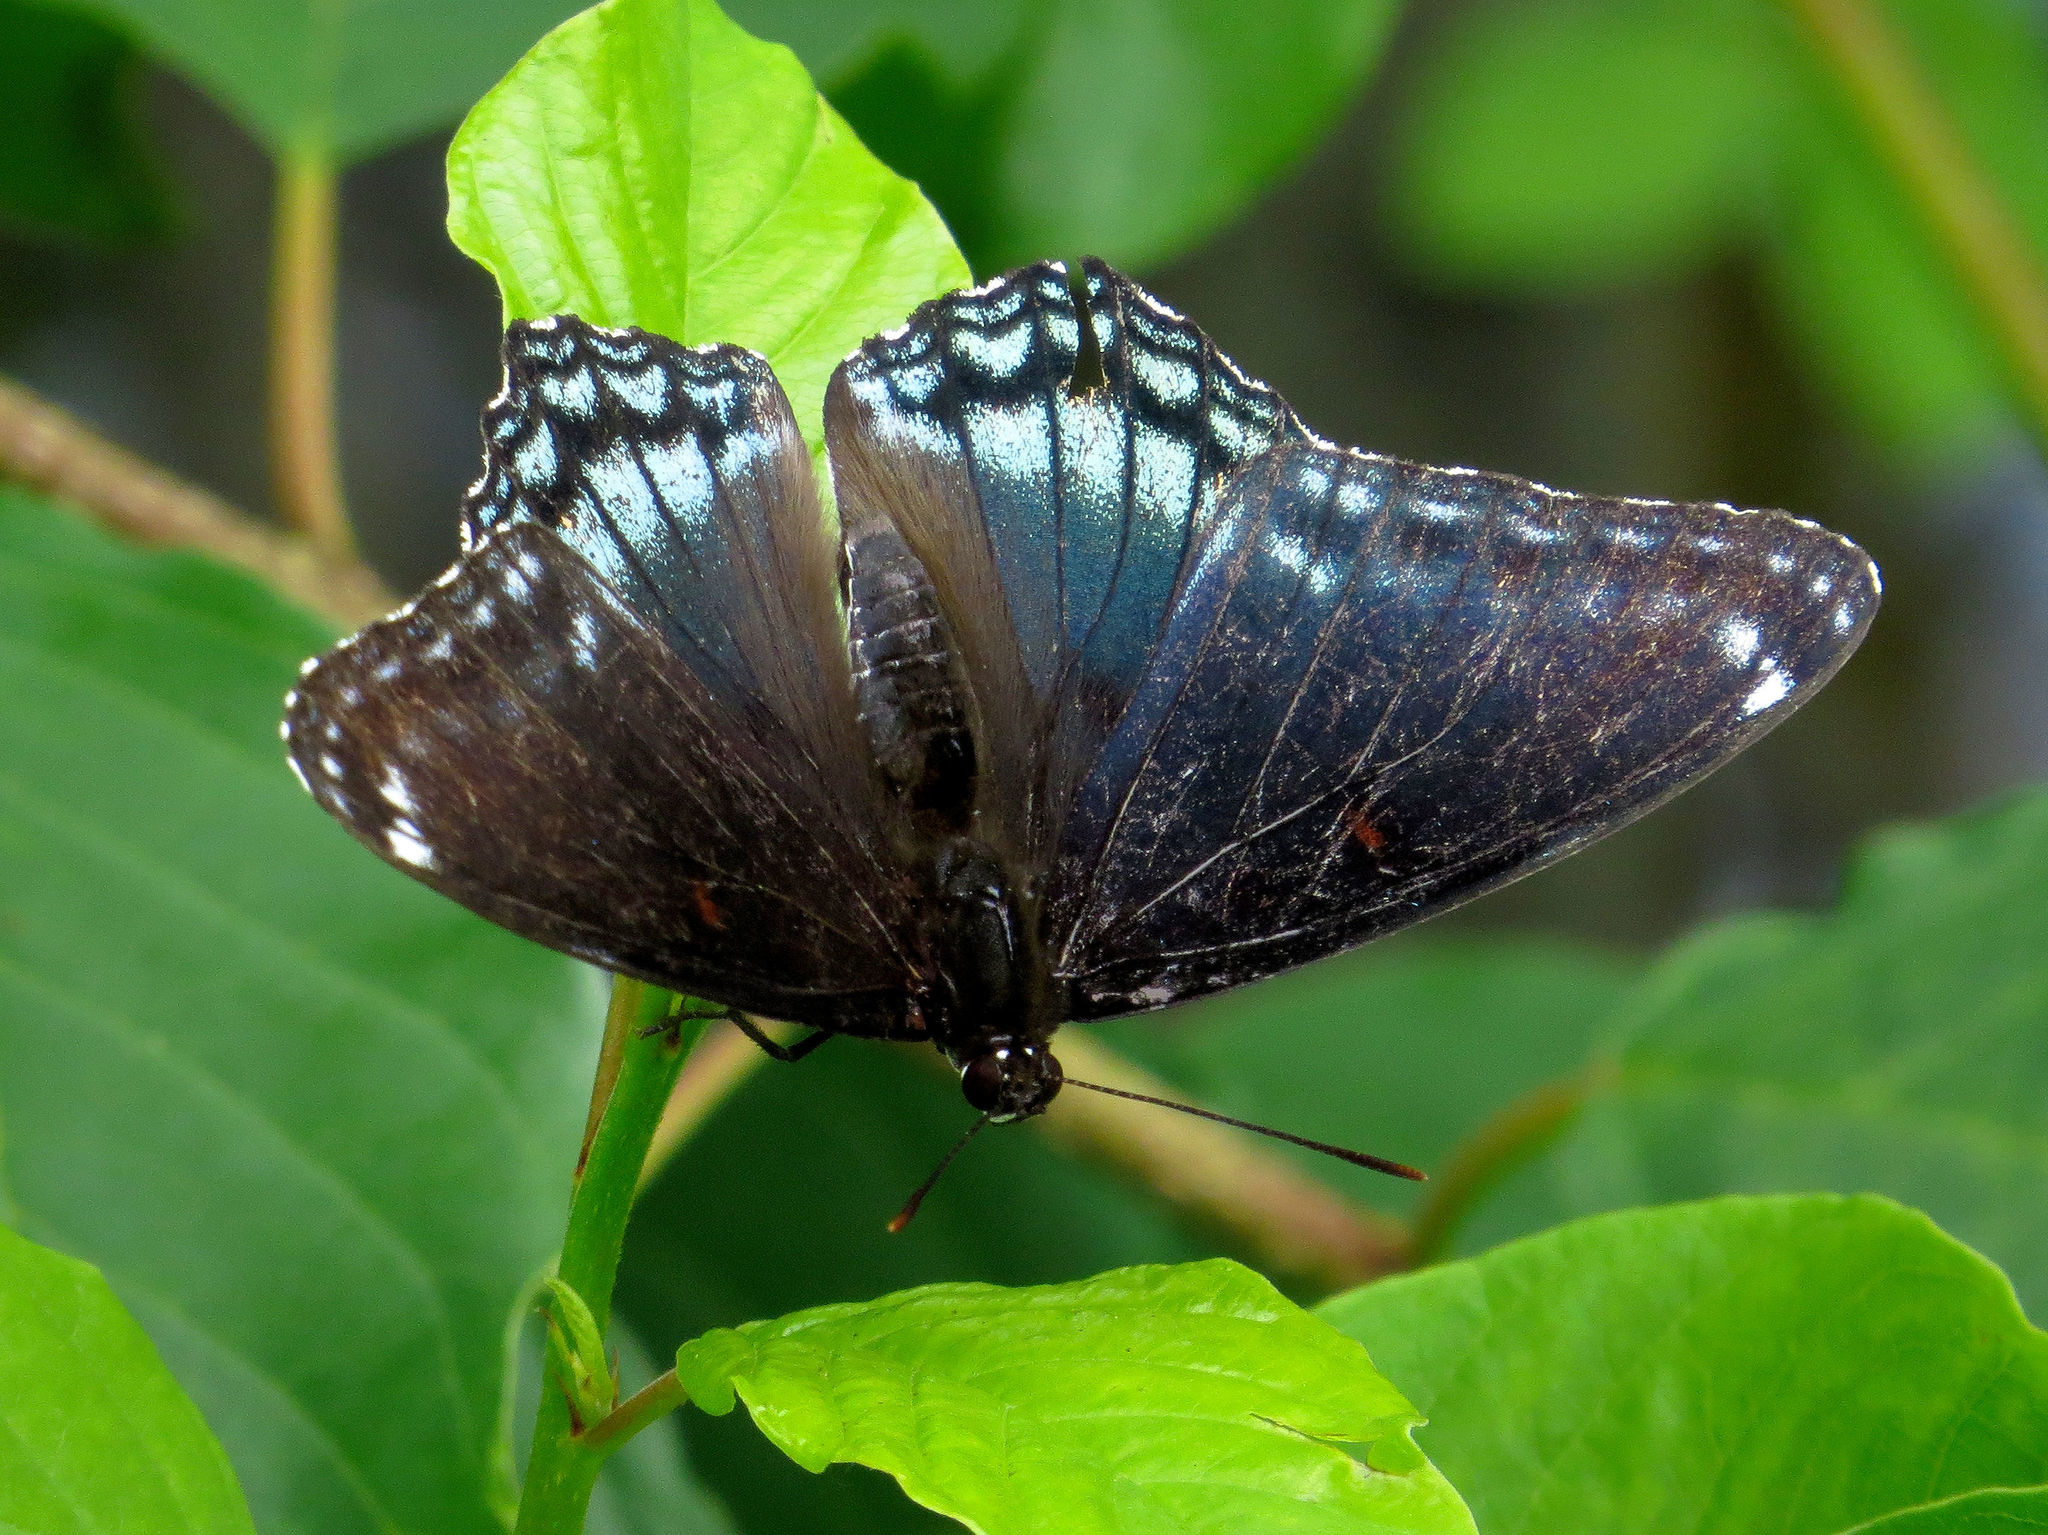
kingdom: Animalia
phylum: Arthropoda
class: Insecta
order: Lepidoptera
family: Nymphalidae
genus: Limenitis
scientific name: Limenitis astyanax
